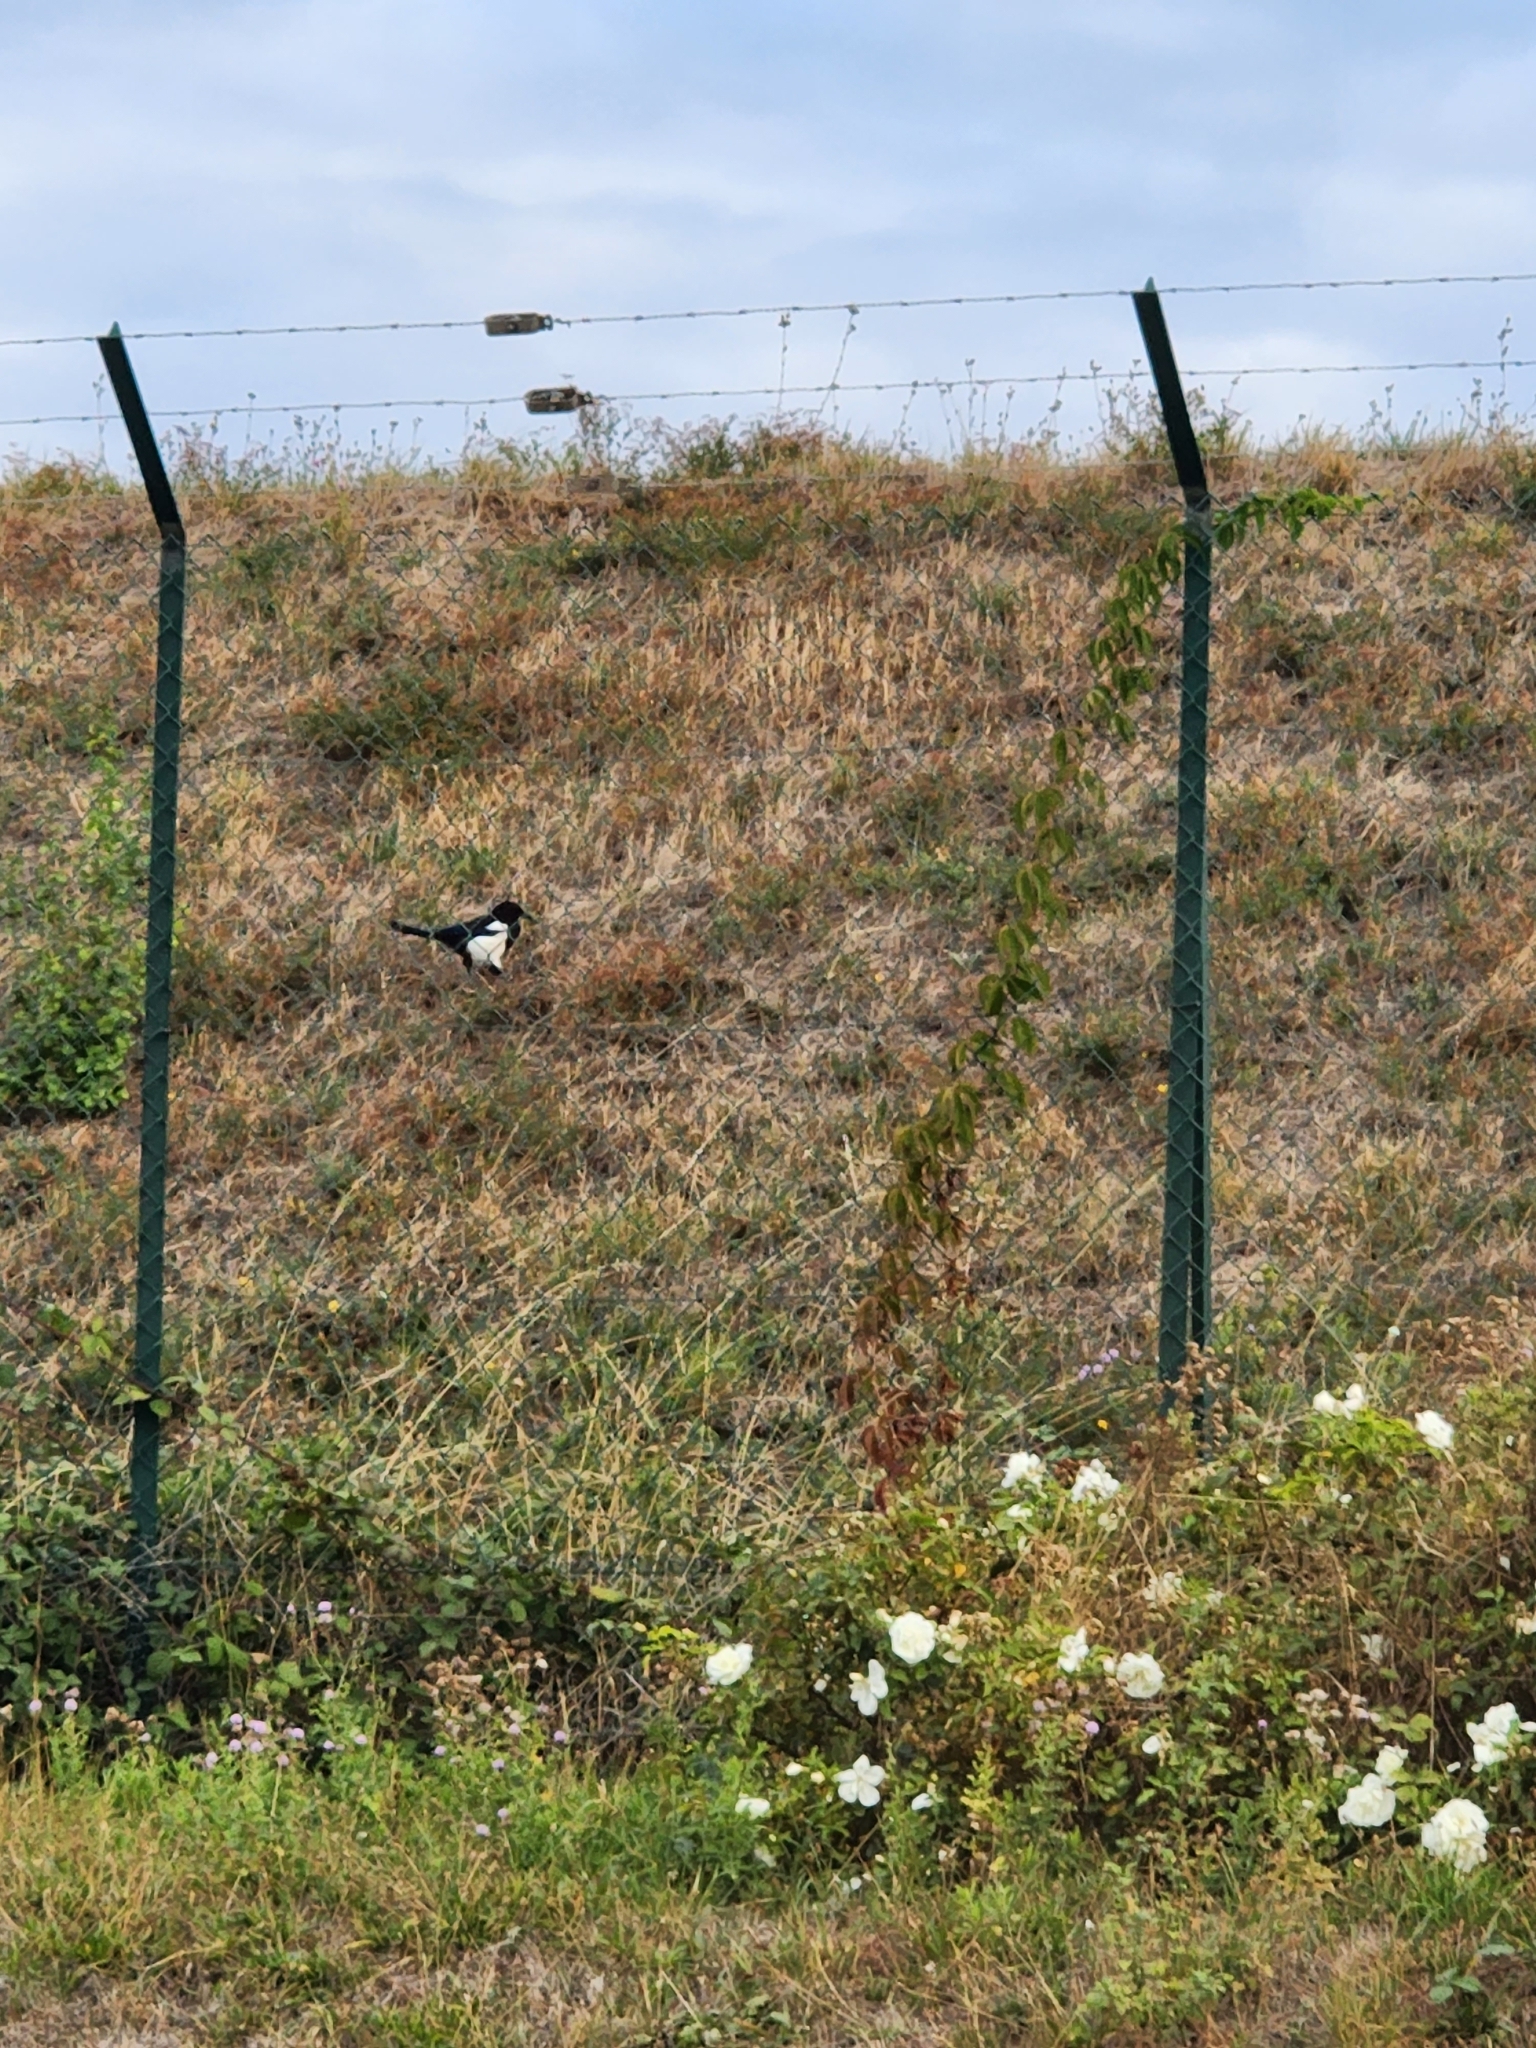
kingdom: Animalia
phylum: Chordata
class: Aves
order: Passeriformes
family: Corvidae
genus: Pica
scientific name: Pica pica
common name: Eurasian magpie
